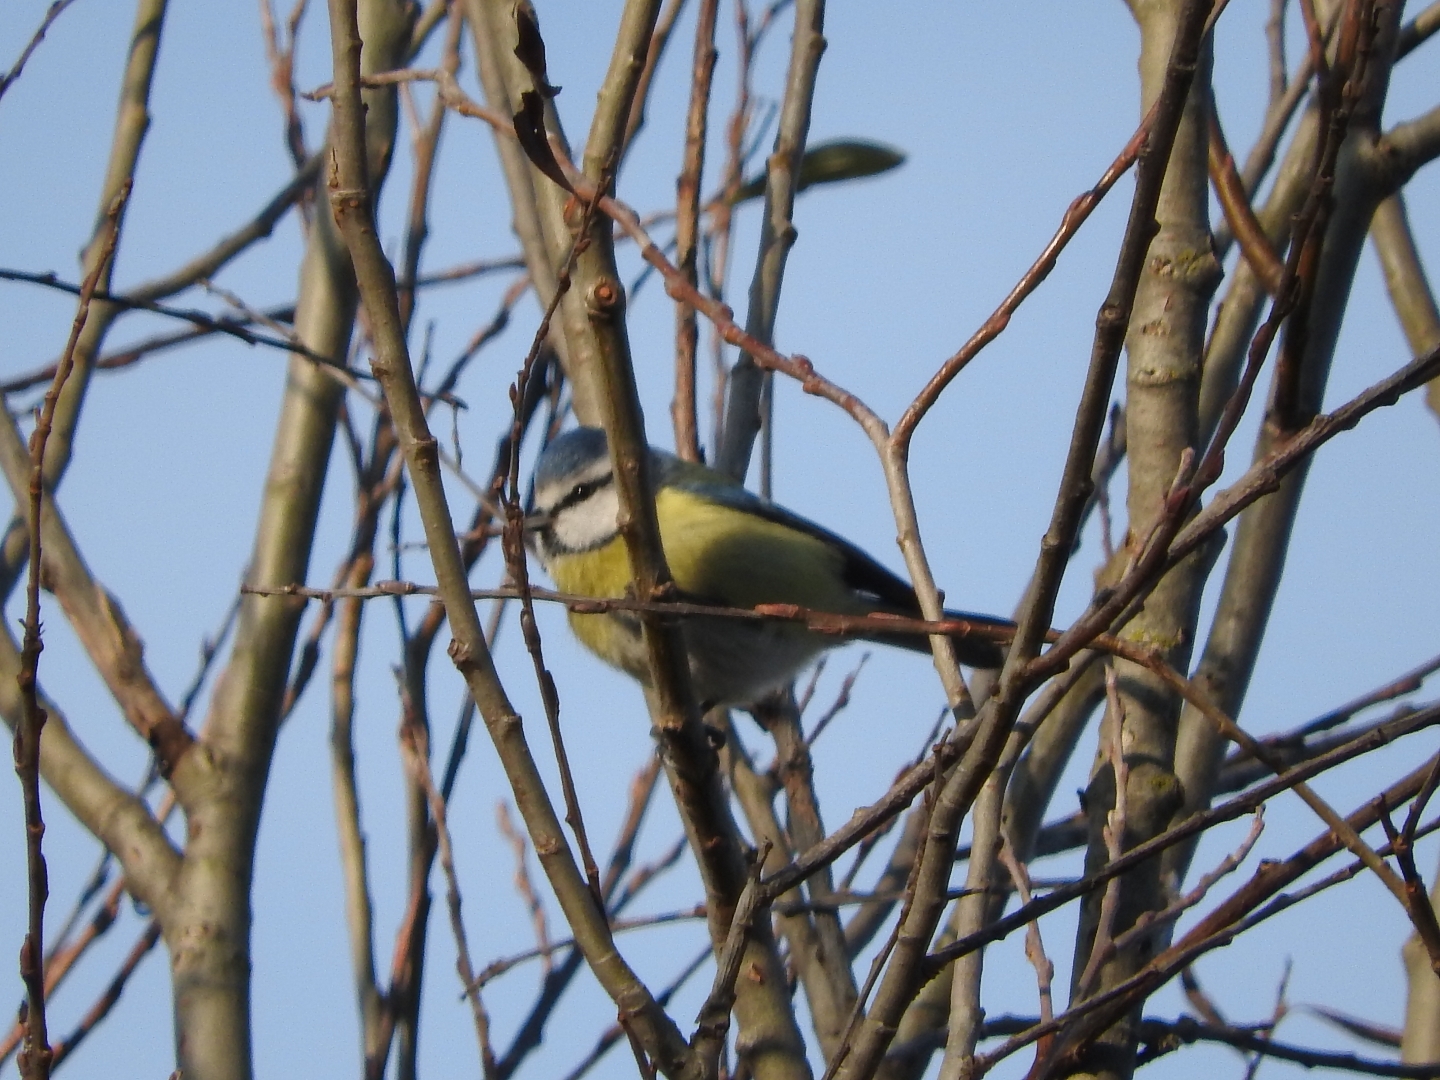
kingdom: Animalia
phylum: Chordata
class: Aves
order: Passeriformes
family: Paridae
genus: Cyanistes
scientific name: Cyanistes caeruleus
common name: Eurasian blue tit
